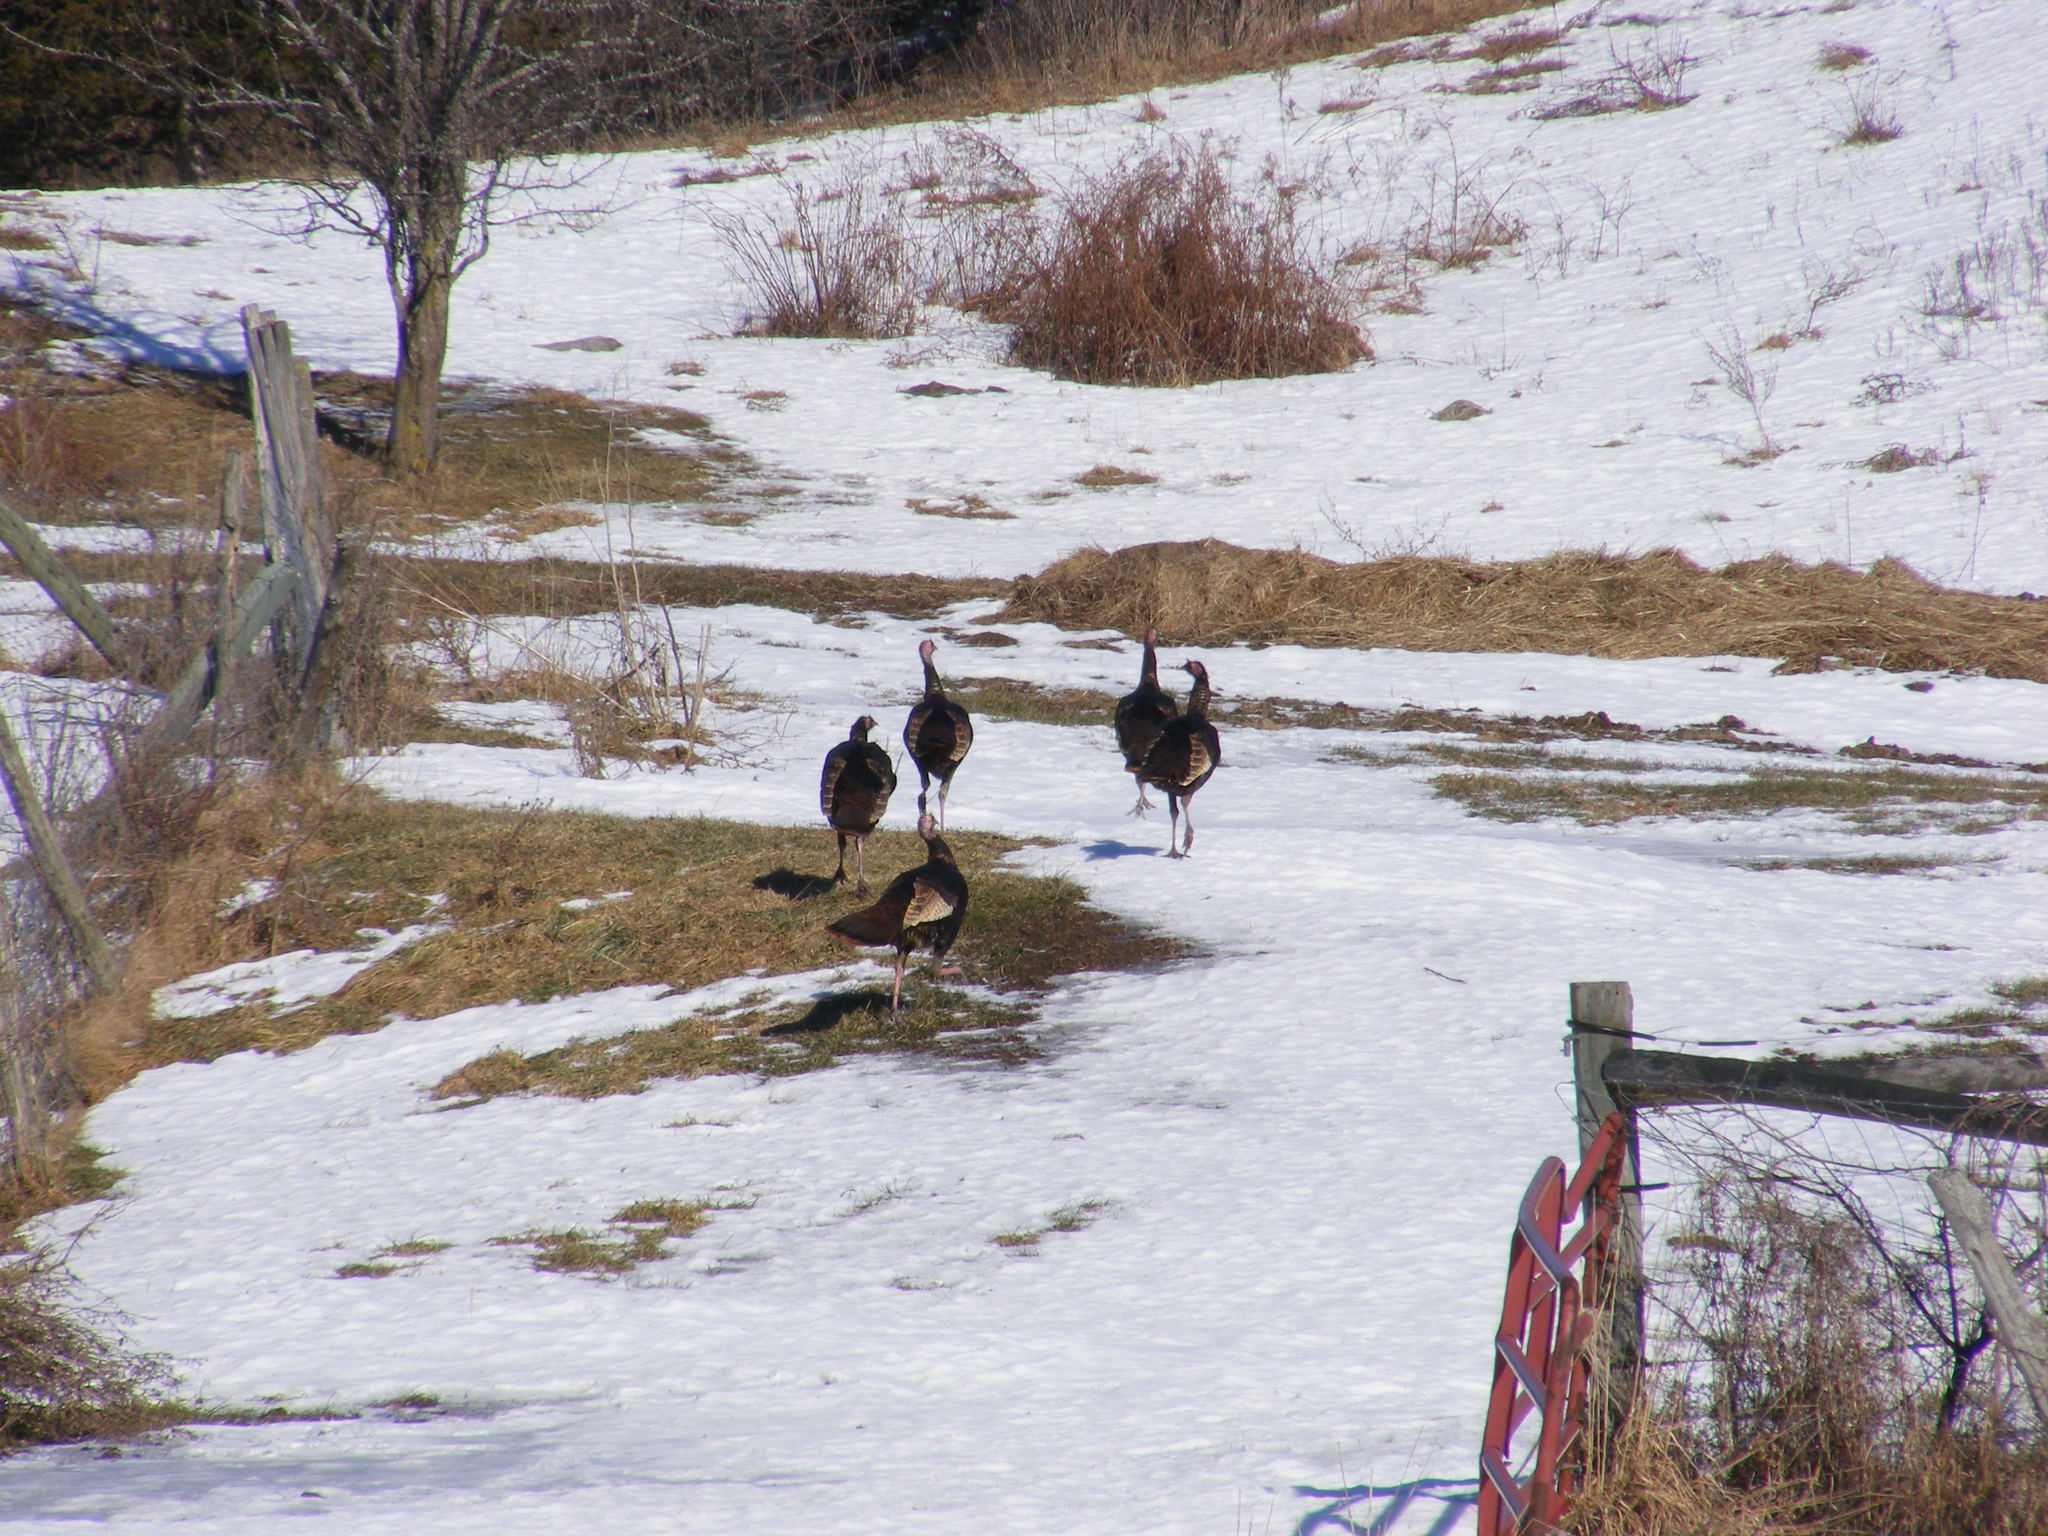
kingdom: Animalia
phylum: Chordata
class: Aves
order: Galliformes
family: Phasianidae
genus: Meleagris
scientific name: Meleagris gallopavo
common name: Wild turkey
